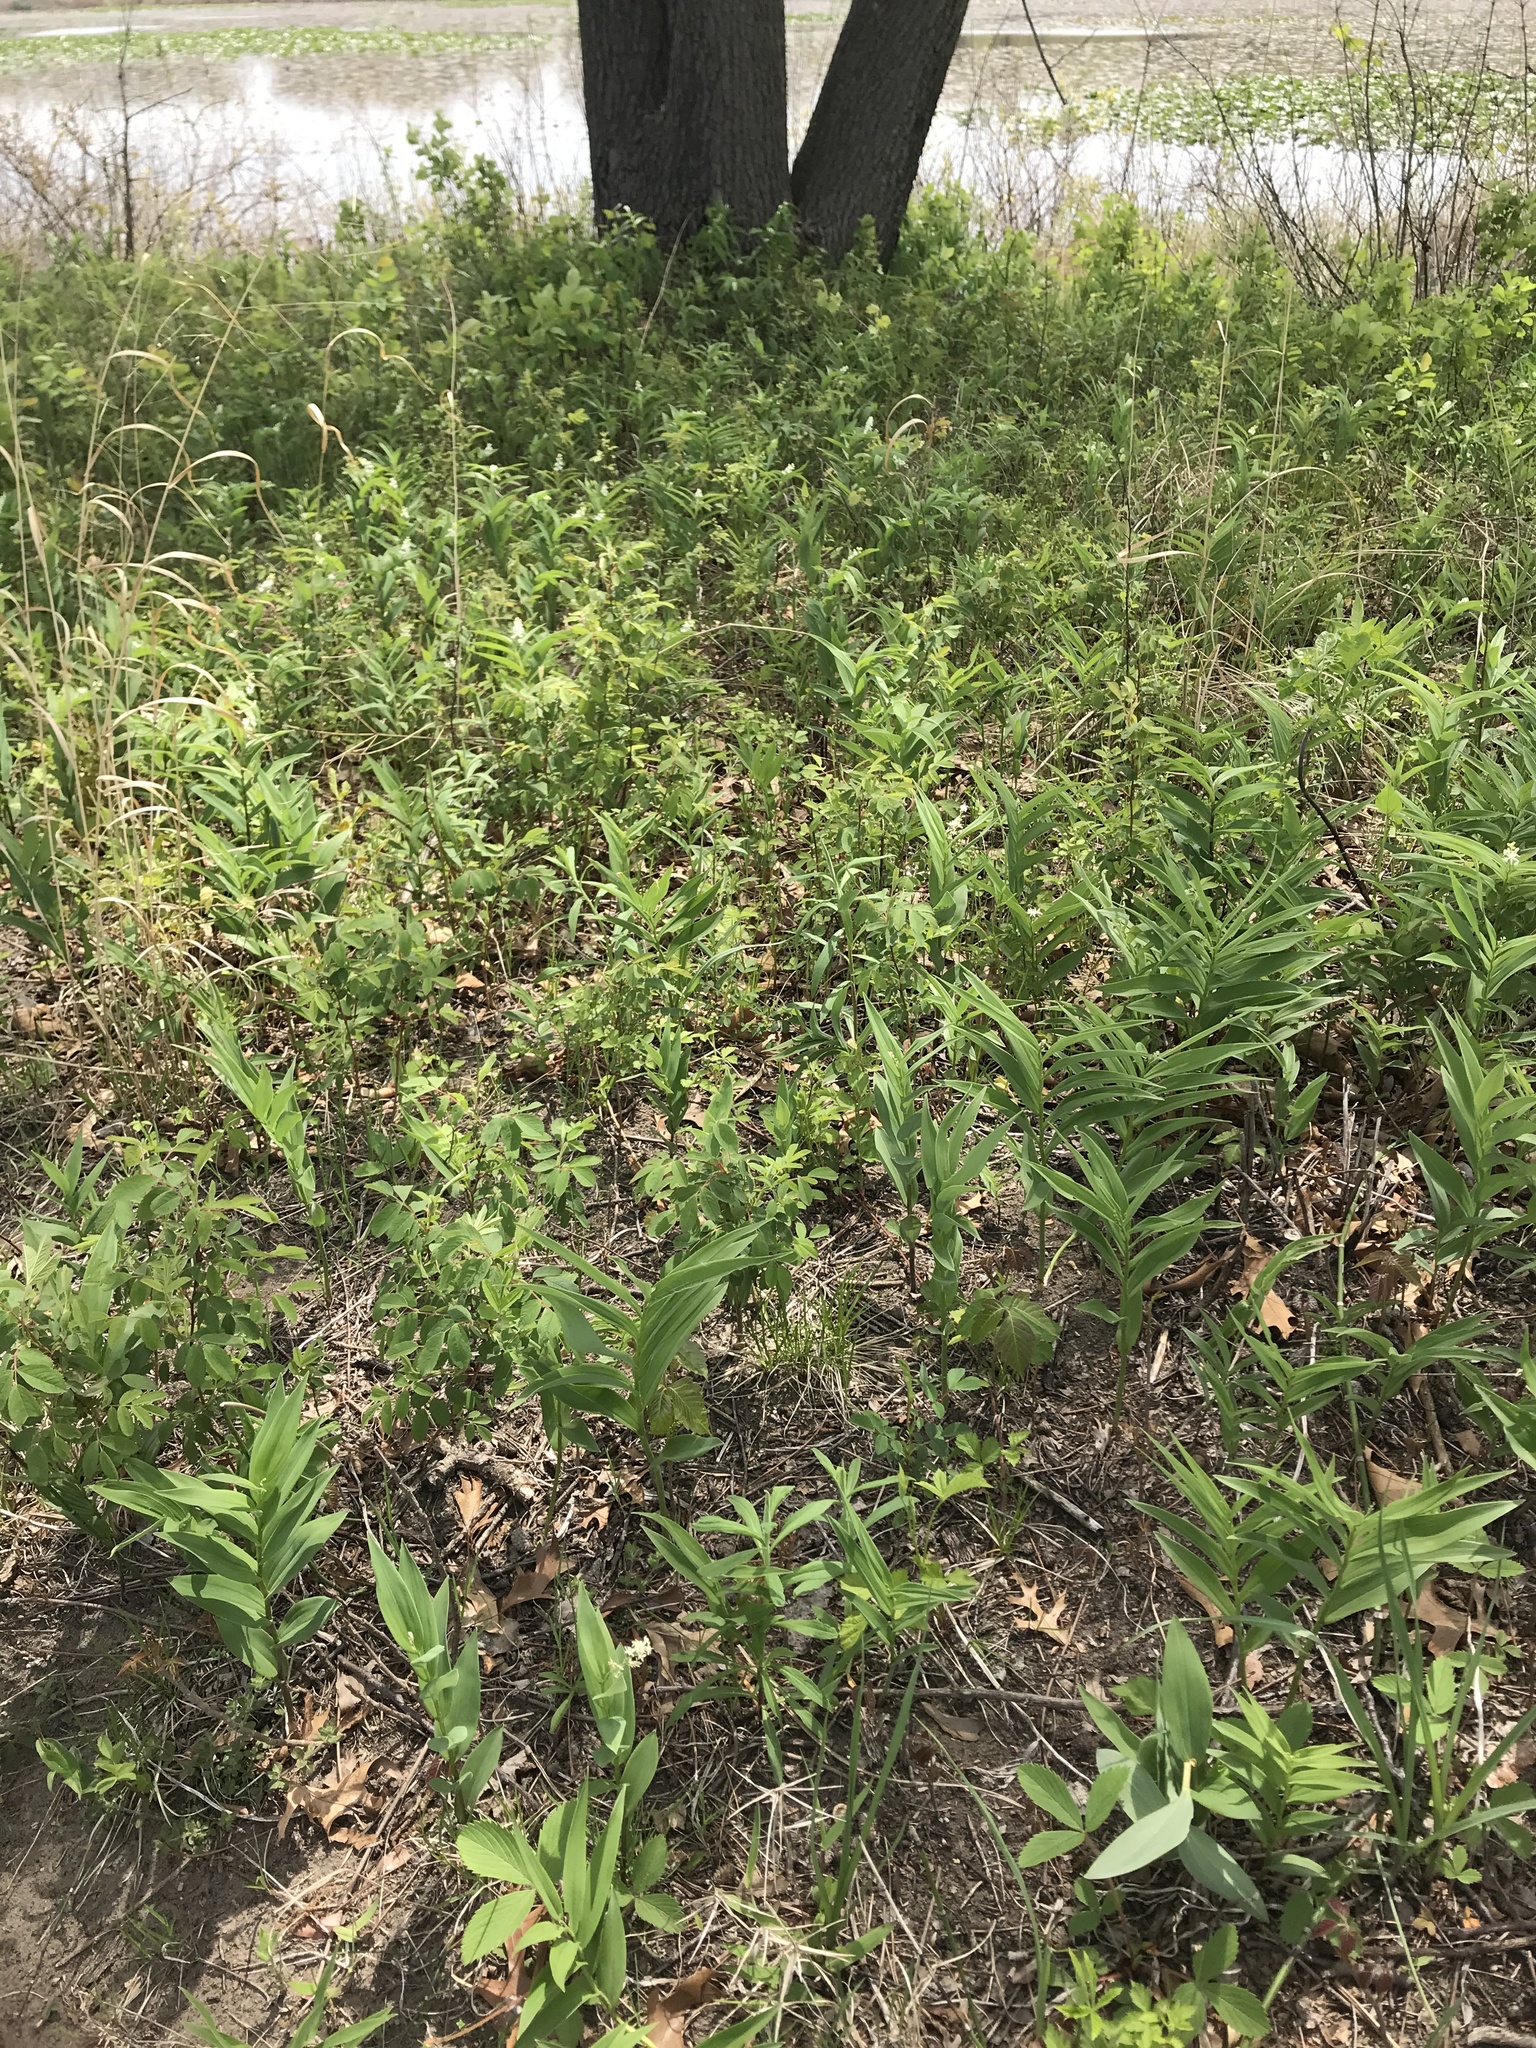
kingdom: Plantae
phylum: Tracheophyta
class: Liliopsida
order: Asparagales
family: Asparagaceae
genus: Maianthemum
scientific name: Maianthemum stellatum
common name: Little false solomon's seal
